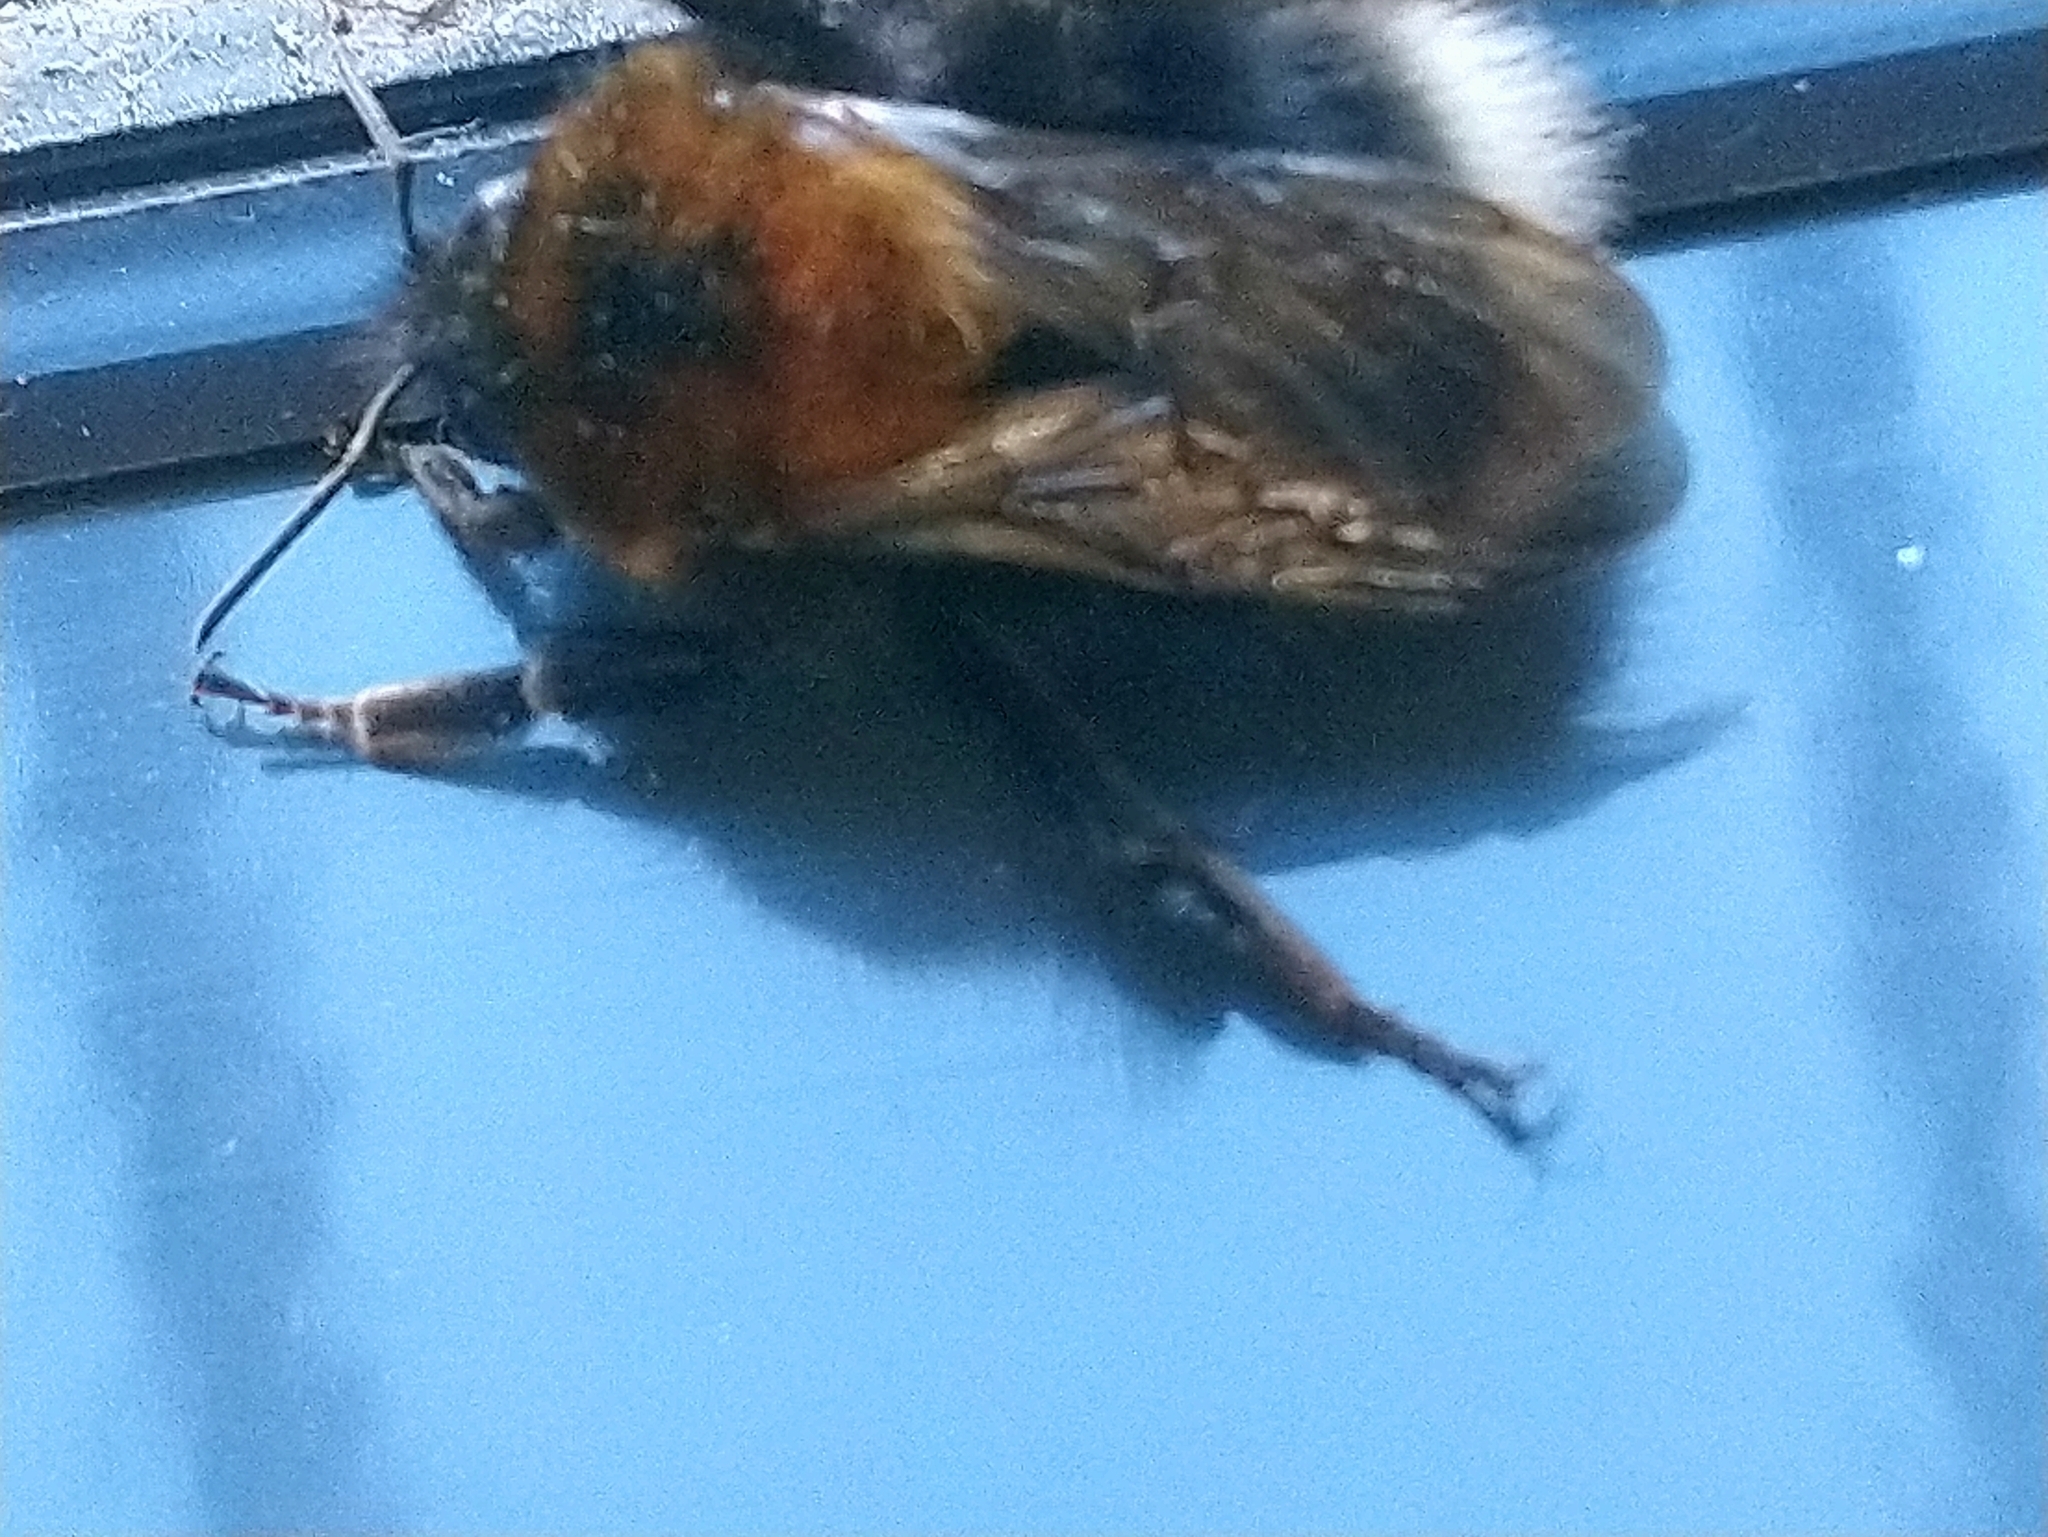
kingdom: Animalia
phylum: Arthropoda
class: Insecta
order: Hymenoptera
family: Apidae
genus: Bombus
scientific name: Bombus hypnorum
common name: New garden bumblebee
